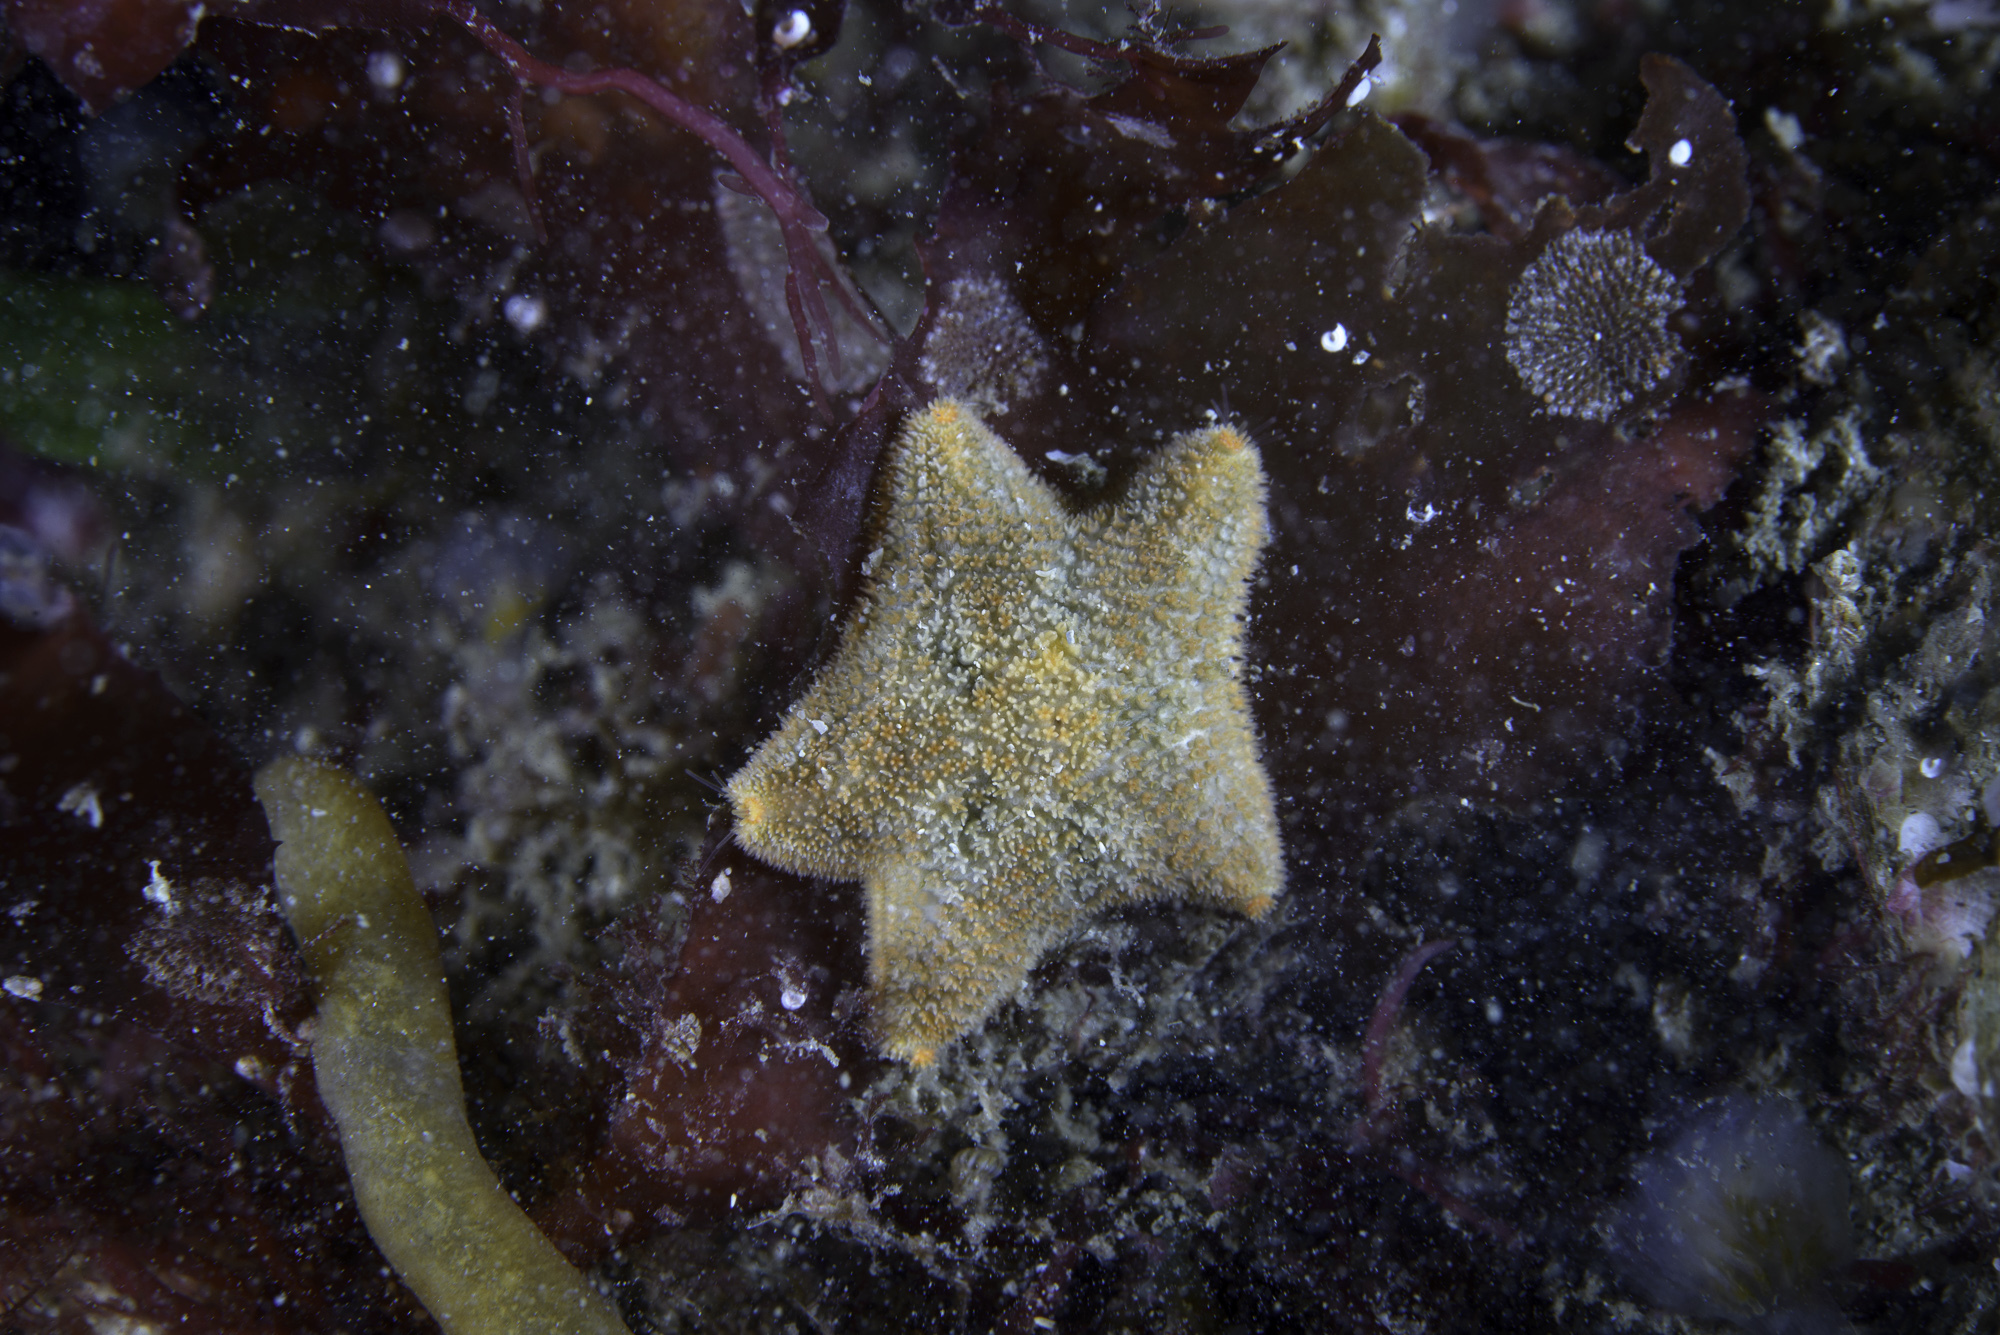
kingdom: Animalia
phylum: Echinodermata
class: Asteroidea
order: Valvatida
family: Asterinidae
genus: Asterina
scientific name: Asterina gibbosa
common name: Cushion star
